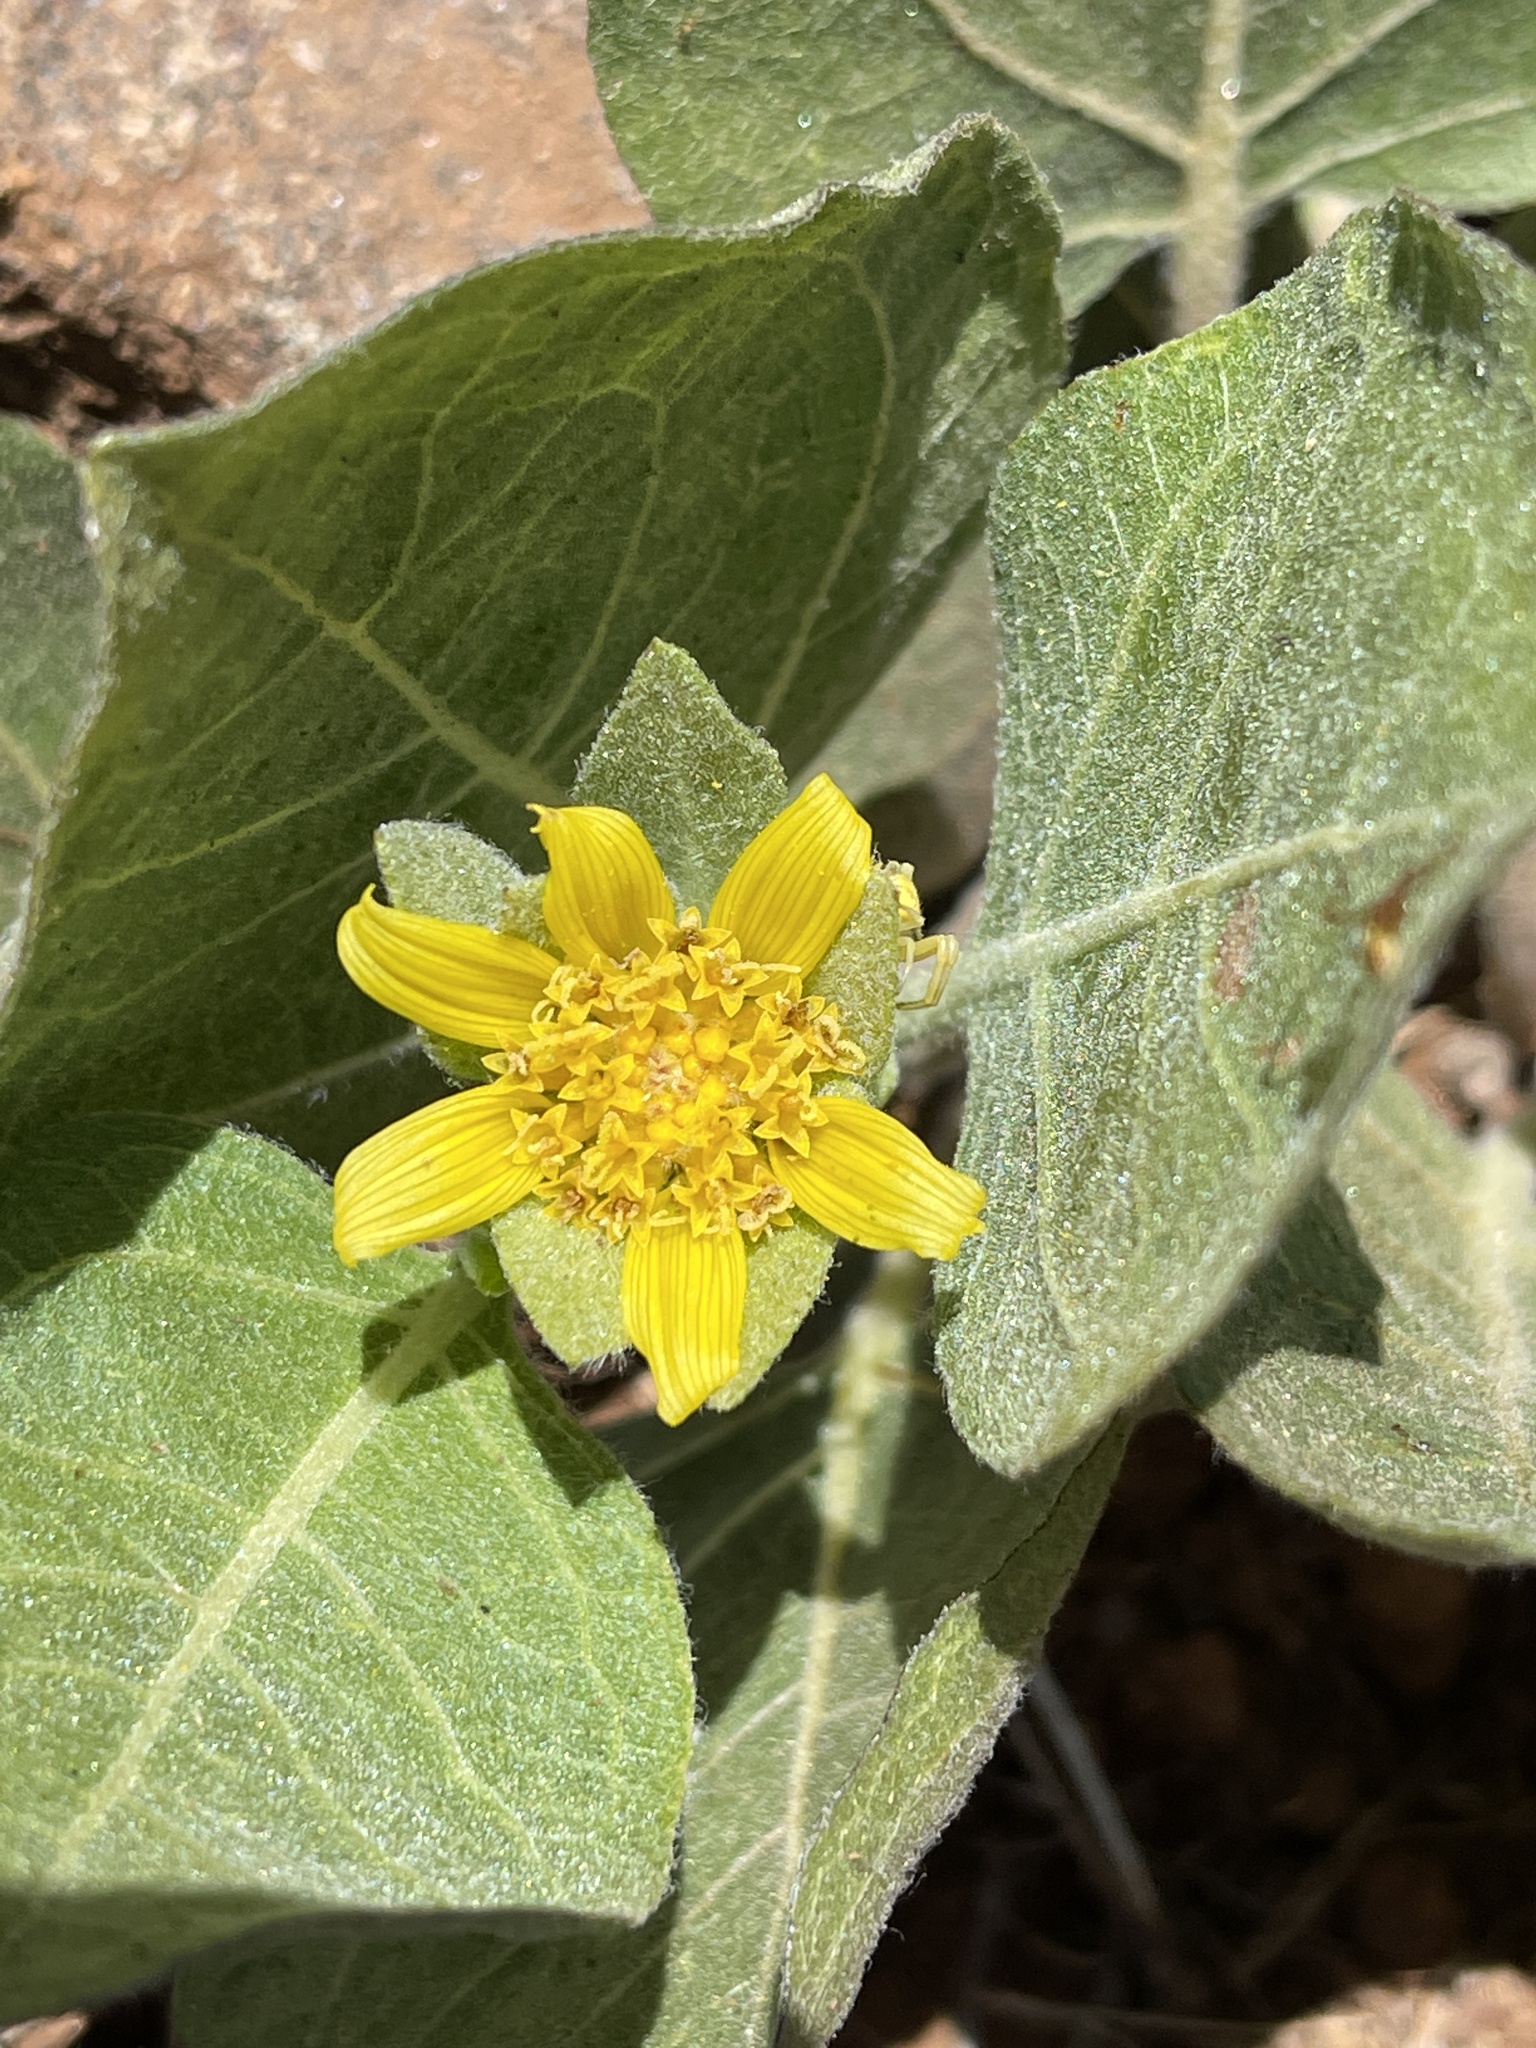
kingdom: Plantae
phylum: Tracheophyta
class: Magnoliopsida
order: Asterales
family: Asteraceae
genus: Agnorhiza
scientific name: Agnorhiza ovata
